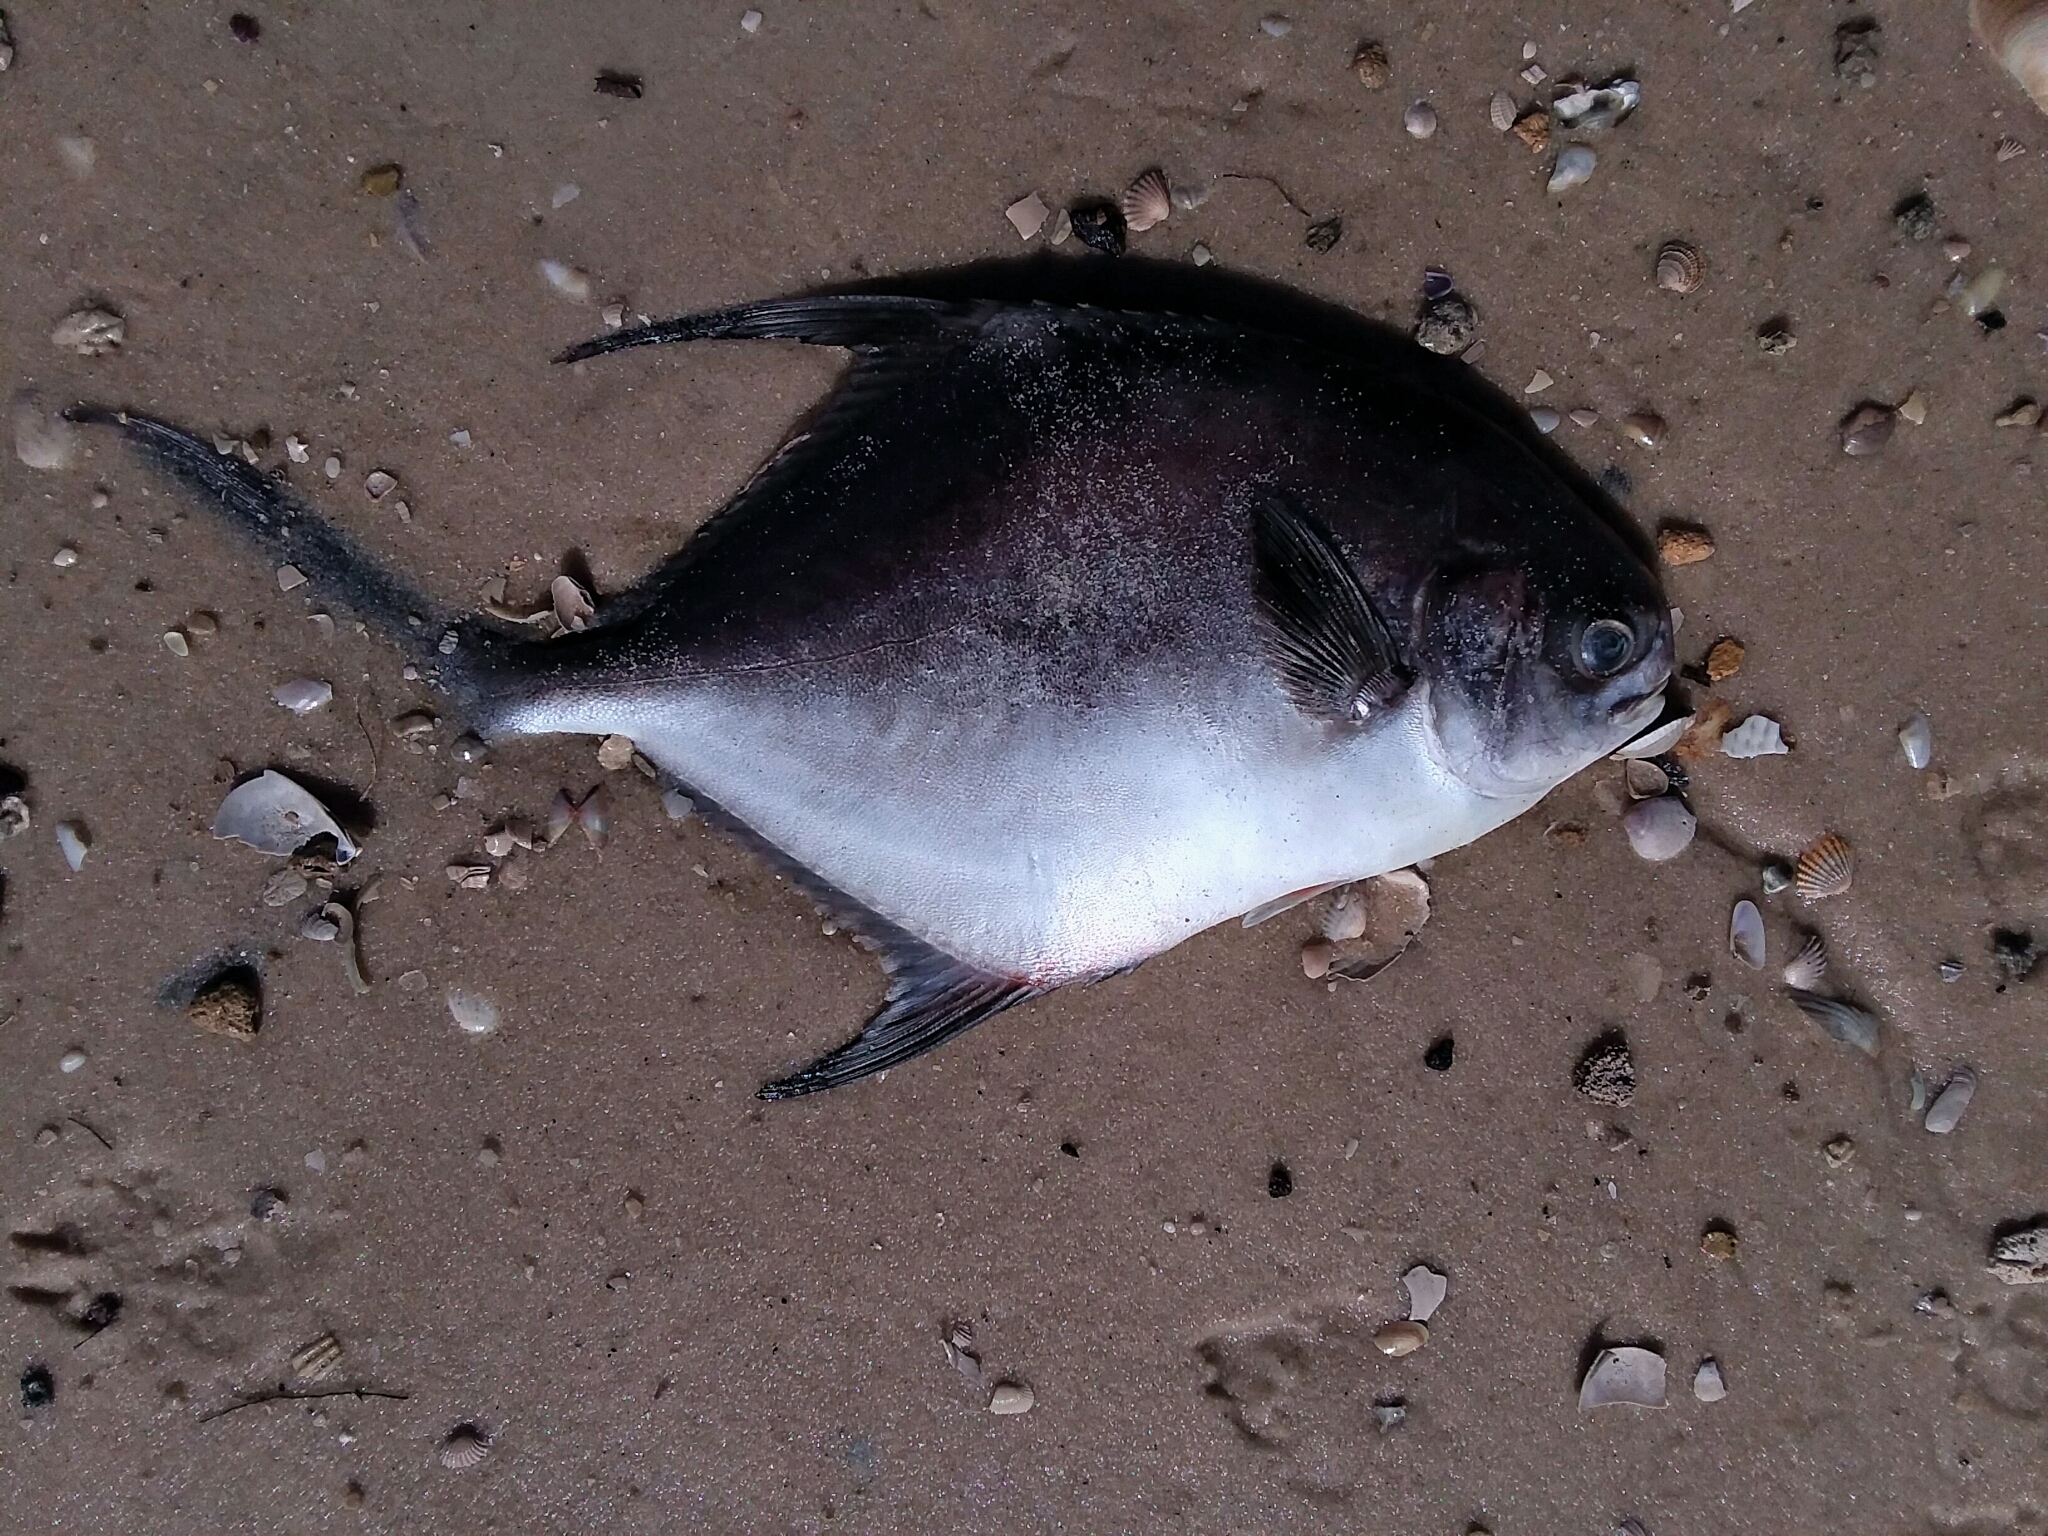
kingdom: Animalia
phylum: Chordata
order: Perciformes
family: Carangidae
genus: Trachinotus
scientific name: Trachinotus falcatus
